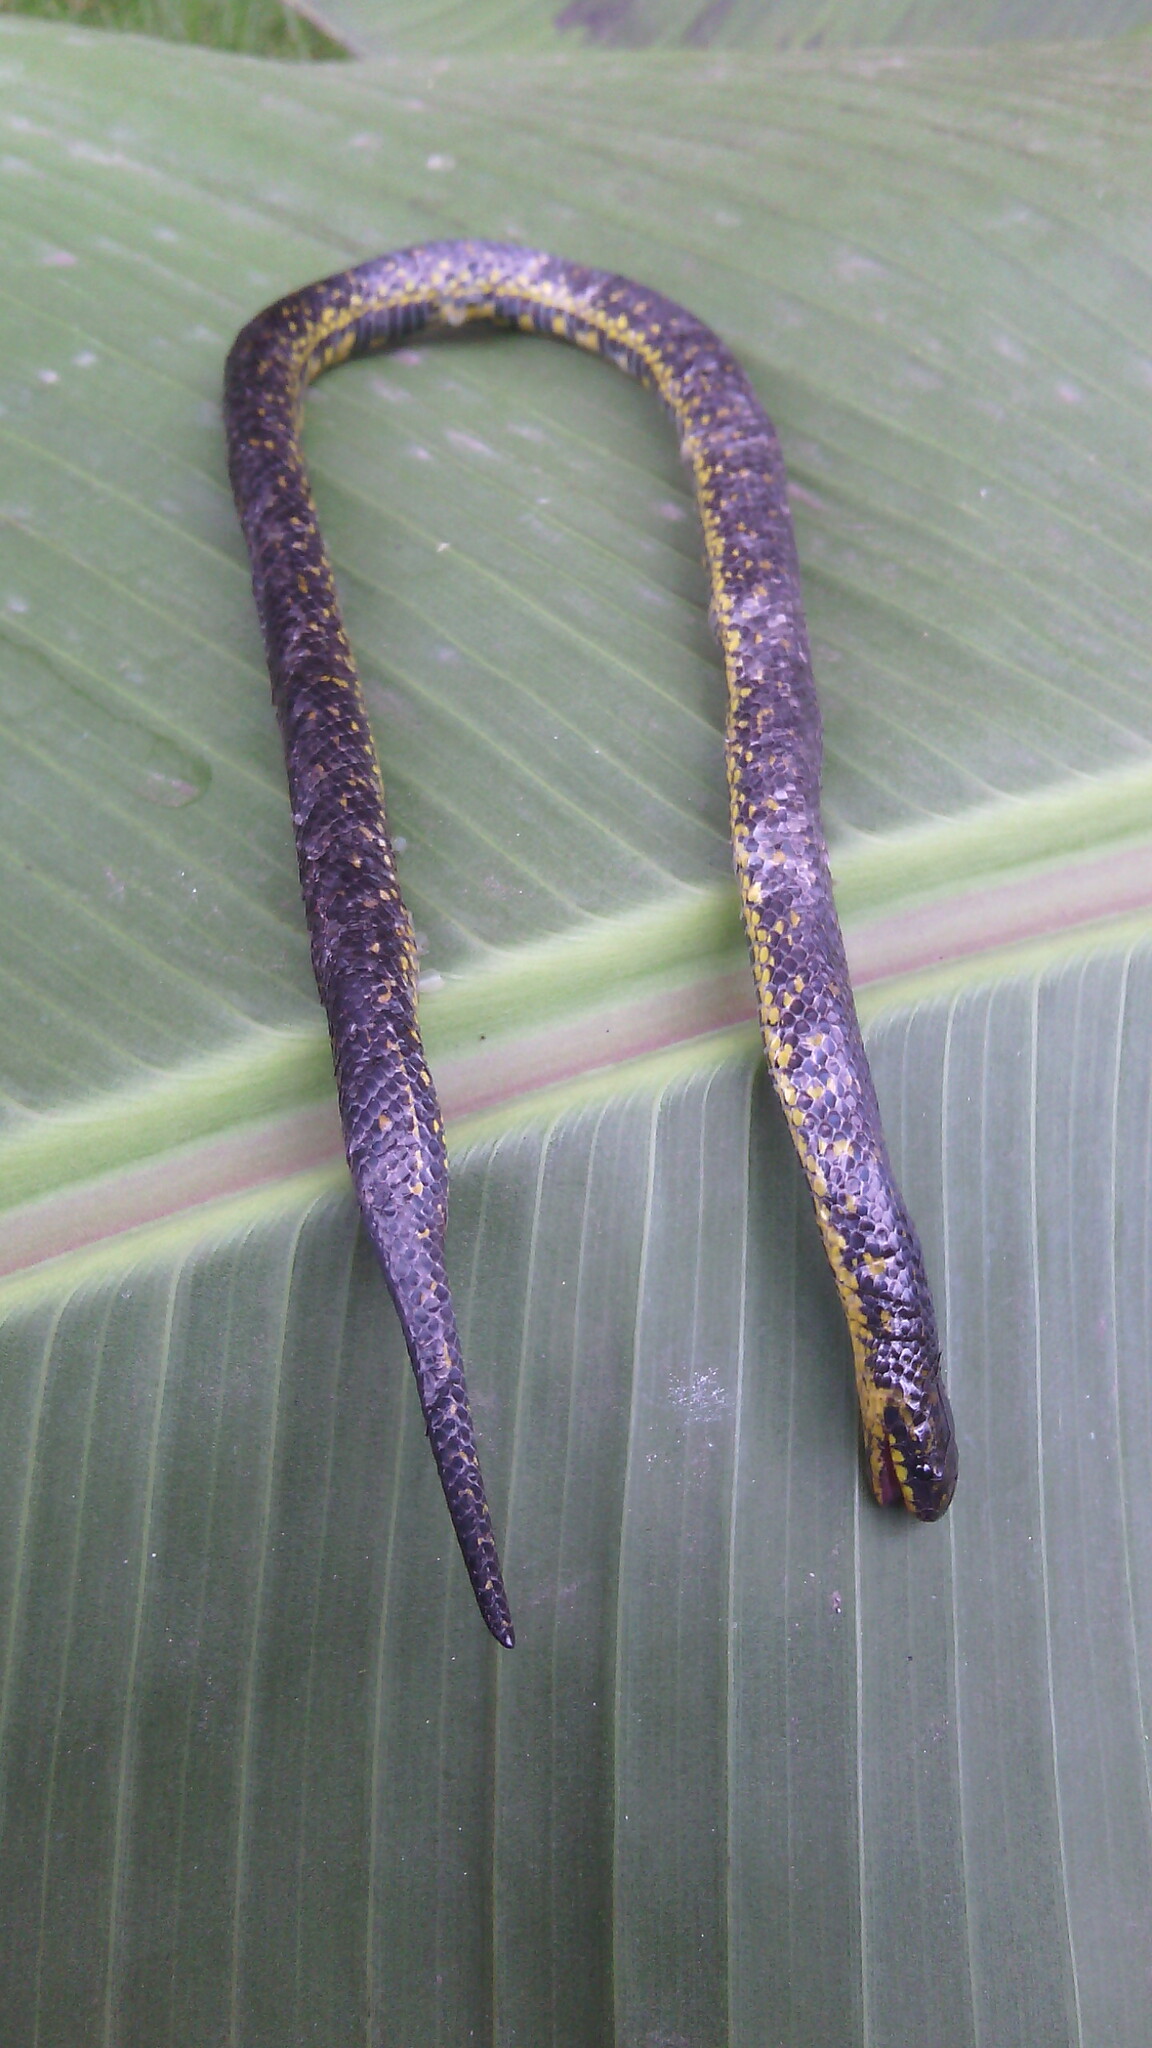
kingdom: Animalia
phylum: Chordata
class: Squamata
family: Colubridae
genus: Atractus
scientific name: Atractus crassicaudatus
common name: Thickhead ground snake
